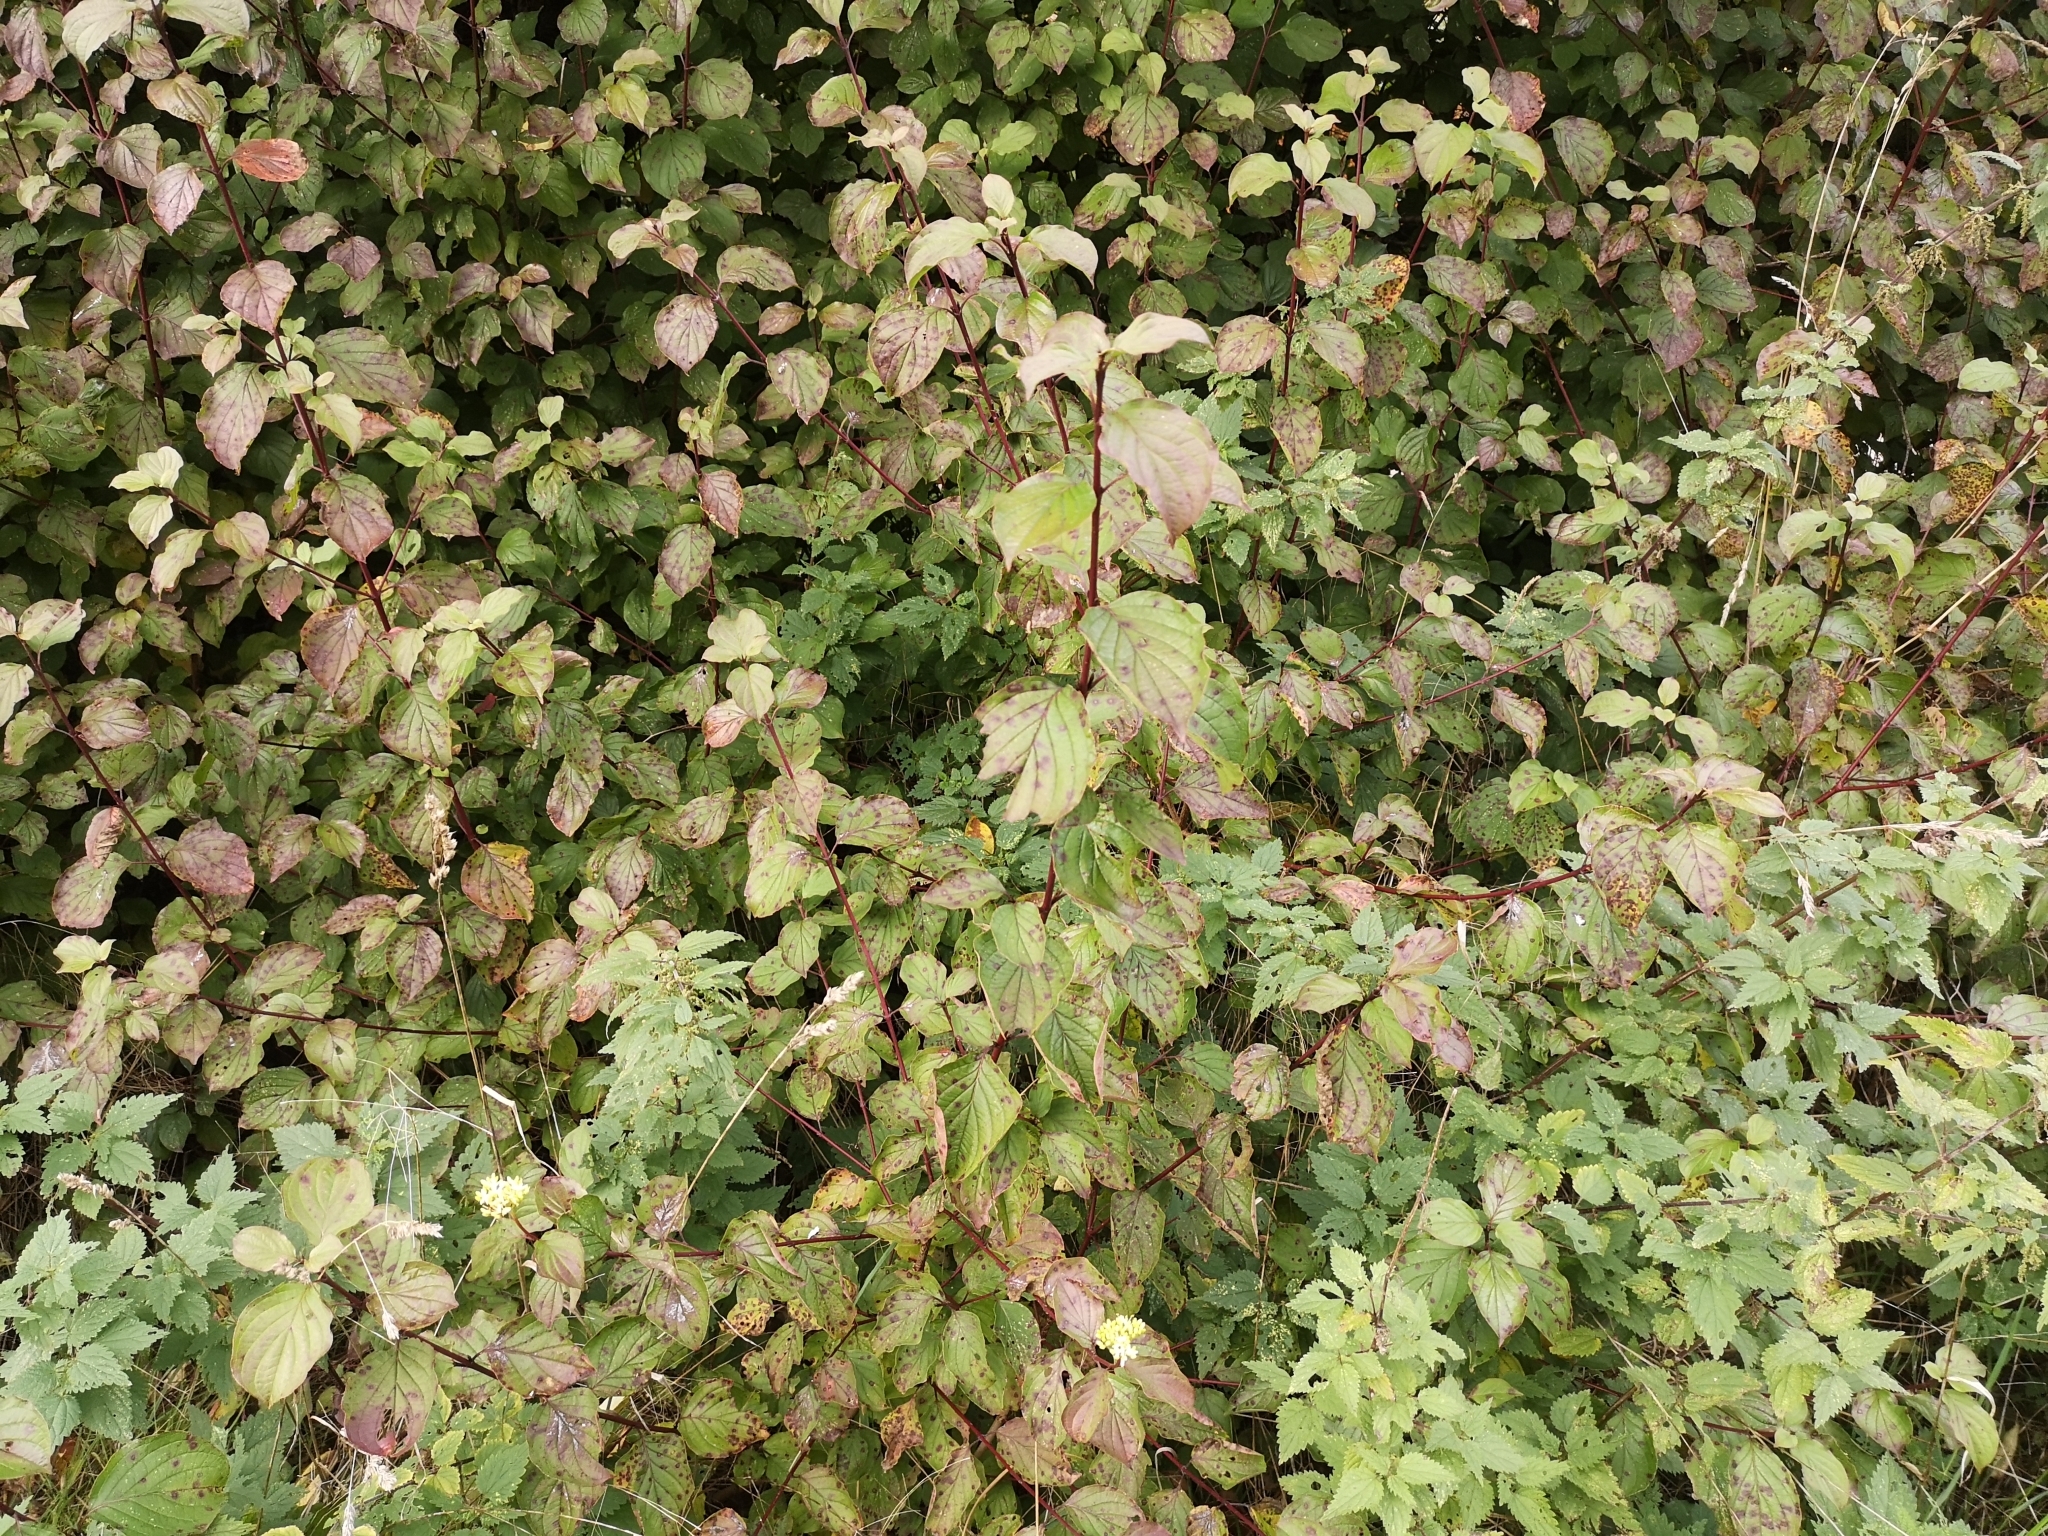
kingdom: Plantae
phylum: Tracheophyta
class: Magnoliopsida
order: Cornales
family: Cornaceae
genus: Cornus
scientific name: Cornus sanguinea
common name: Dogwood
